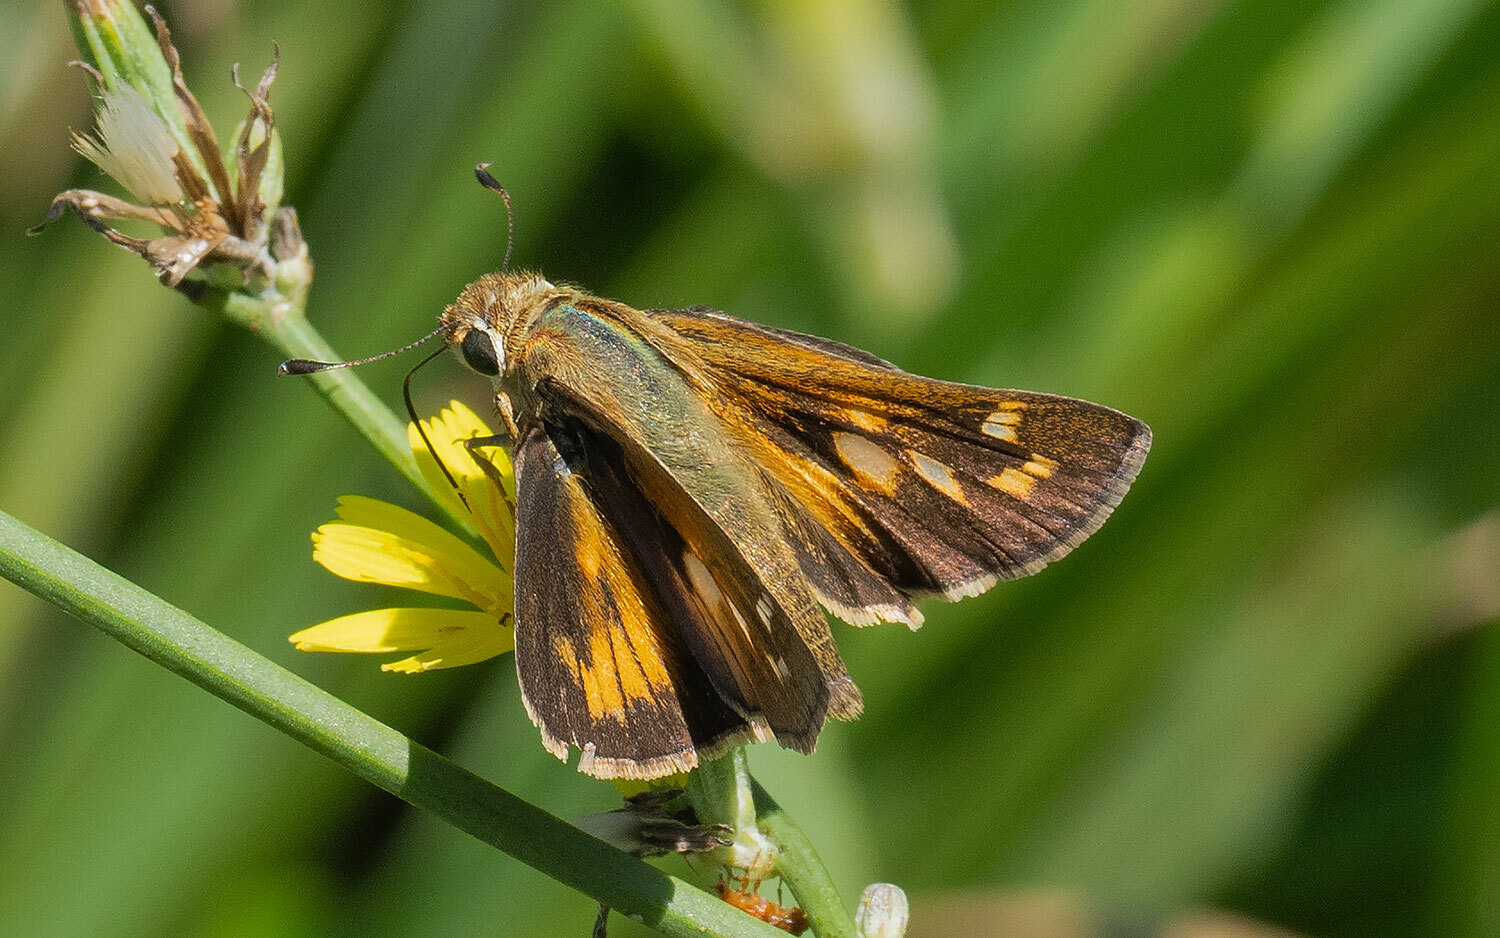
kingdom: Animalia
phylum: Arthropoda
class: Insecta
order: Lepidoptera
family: Hesperiidae
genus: Atalopedes
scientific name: Atalopedes
